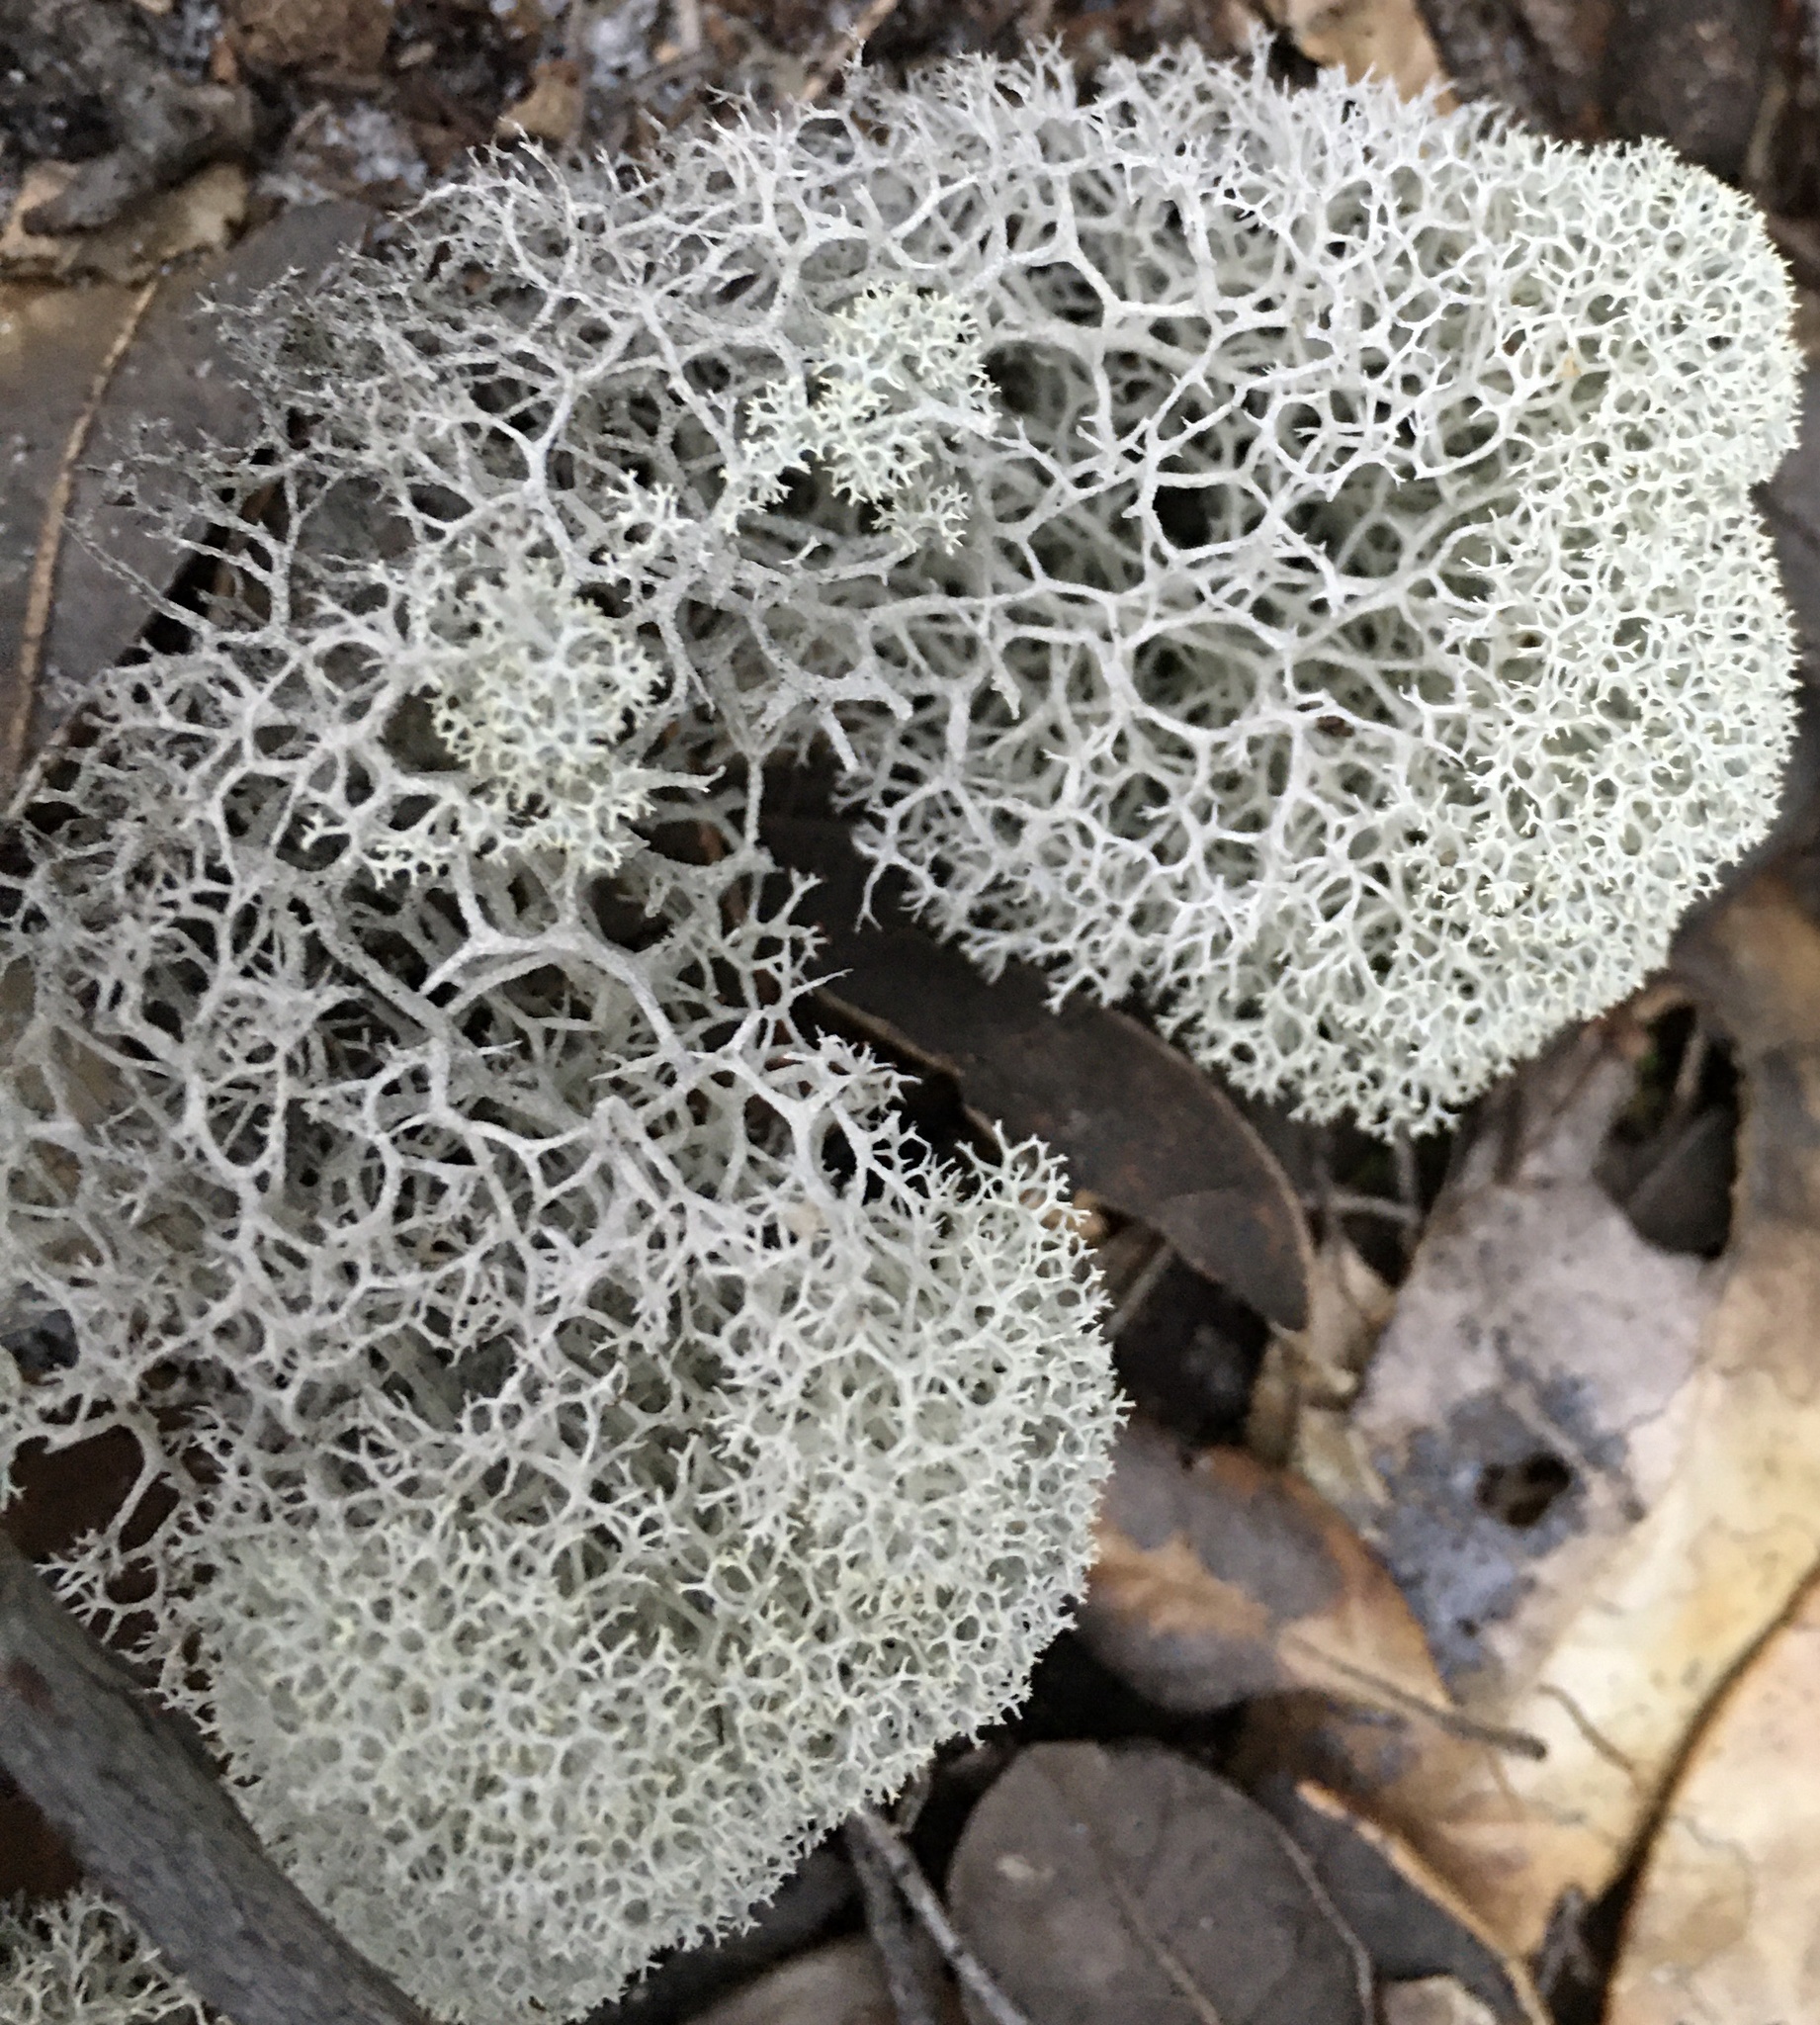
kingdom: Fungi
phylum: Ascomycota
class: Lecanoromycetes
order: Lecanorales
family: Cladoniaceae
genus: Cladonia
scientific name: Cladonia evansii
